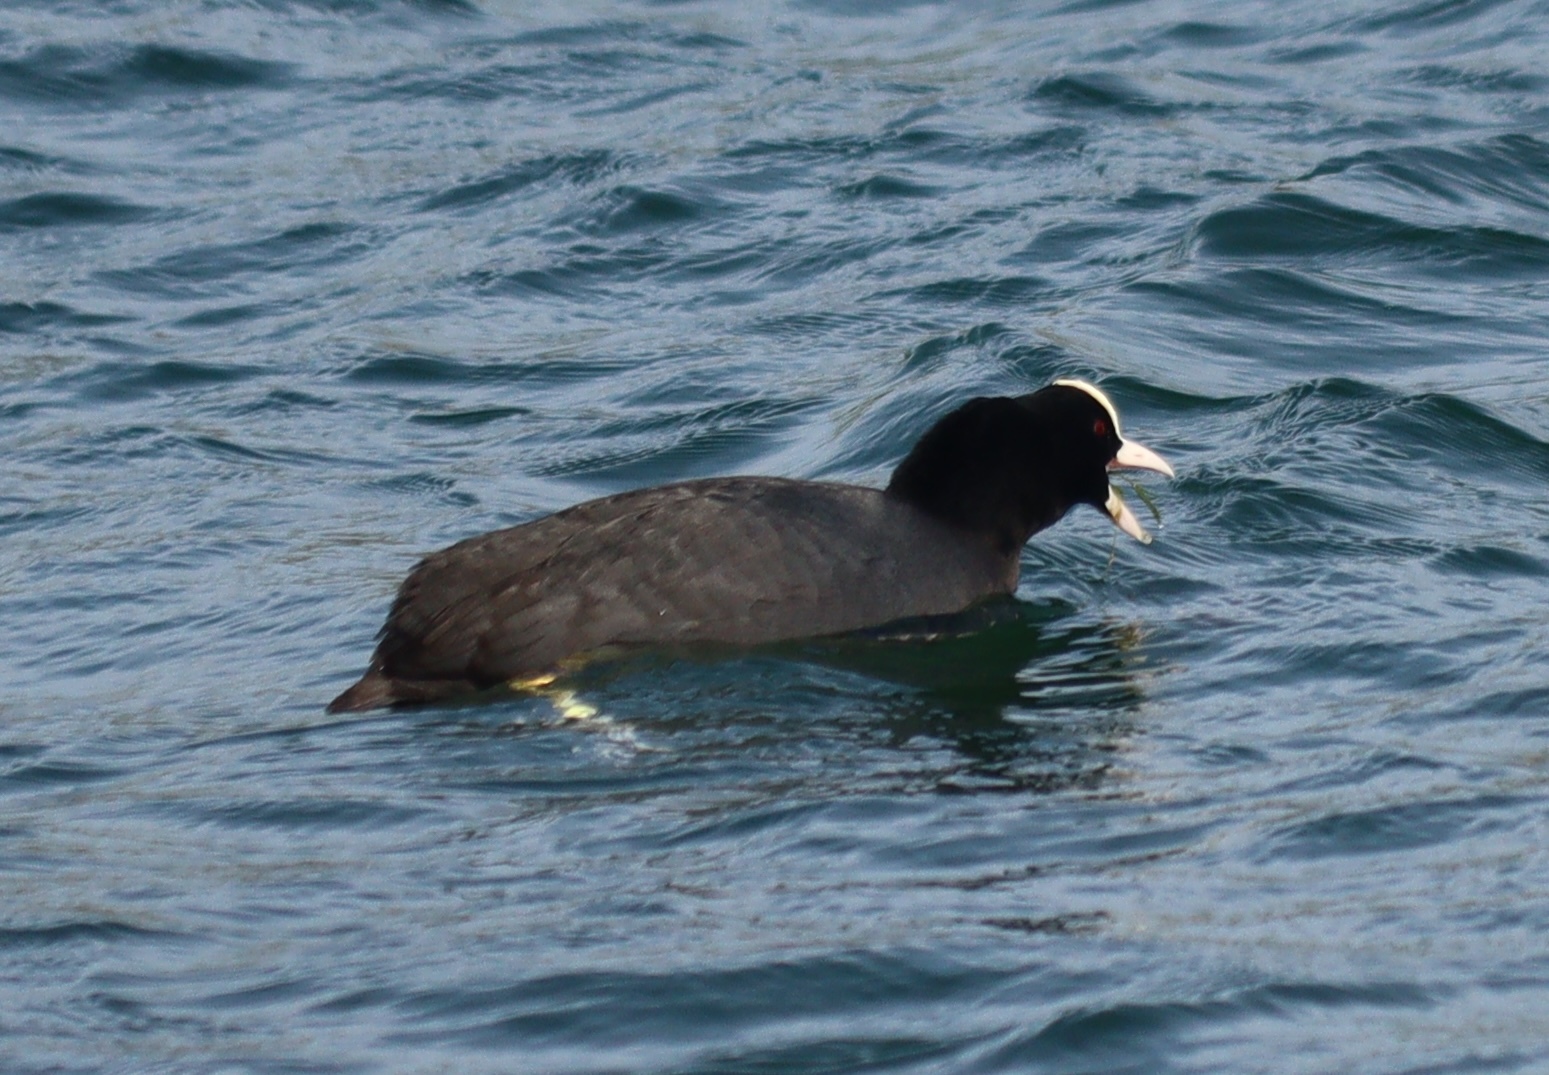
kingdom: Animalia
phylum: Chordata
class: Aves
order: Gruiformes
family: Rallidae
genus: Fulica
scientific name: Fulica atra
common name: Eurasian coot
